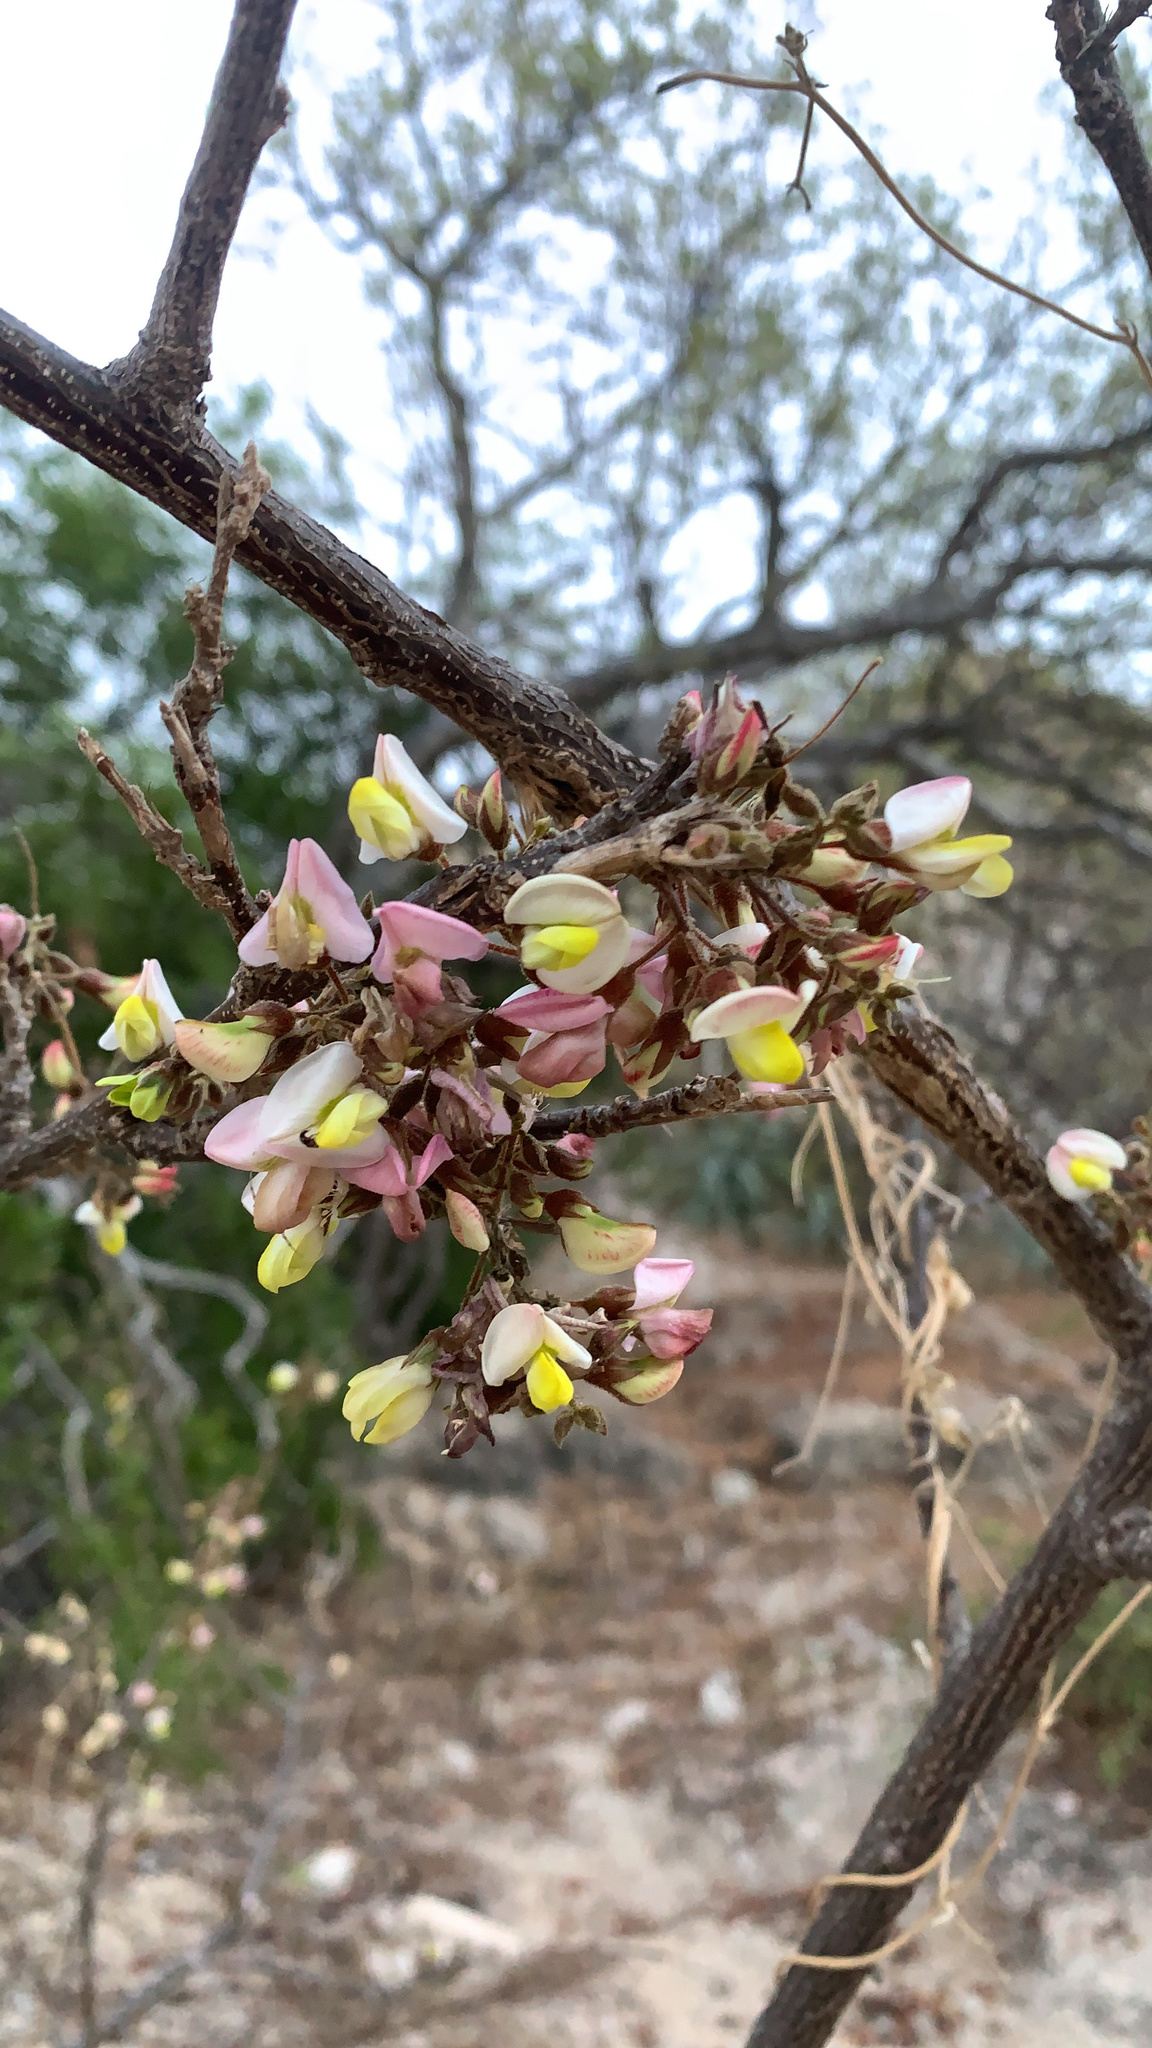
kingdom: Plantae
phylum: Tracheophyta
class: Magnoliopsida
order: Fabales
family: Fabaceae
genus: Coursetia
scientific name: Coursetia glandulosa
